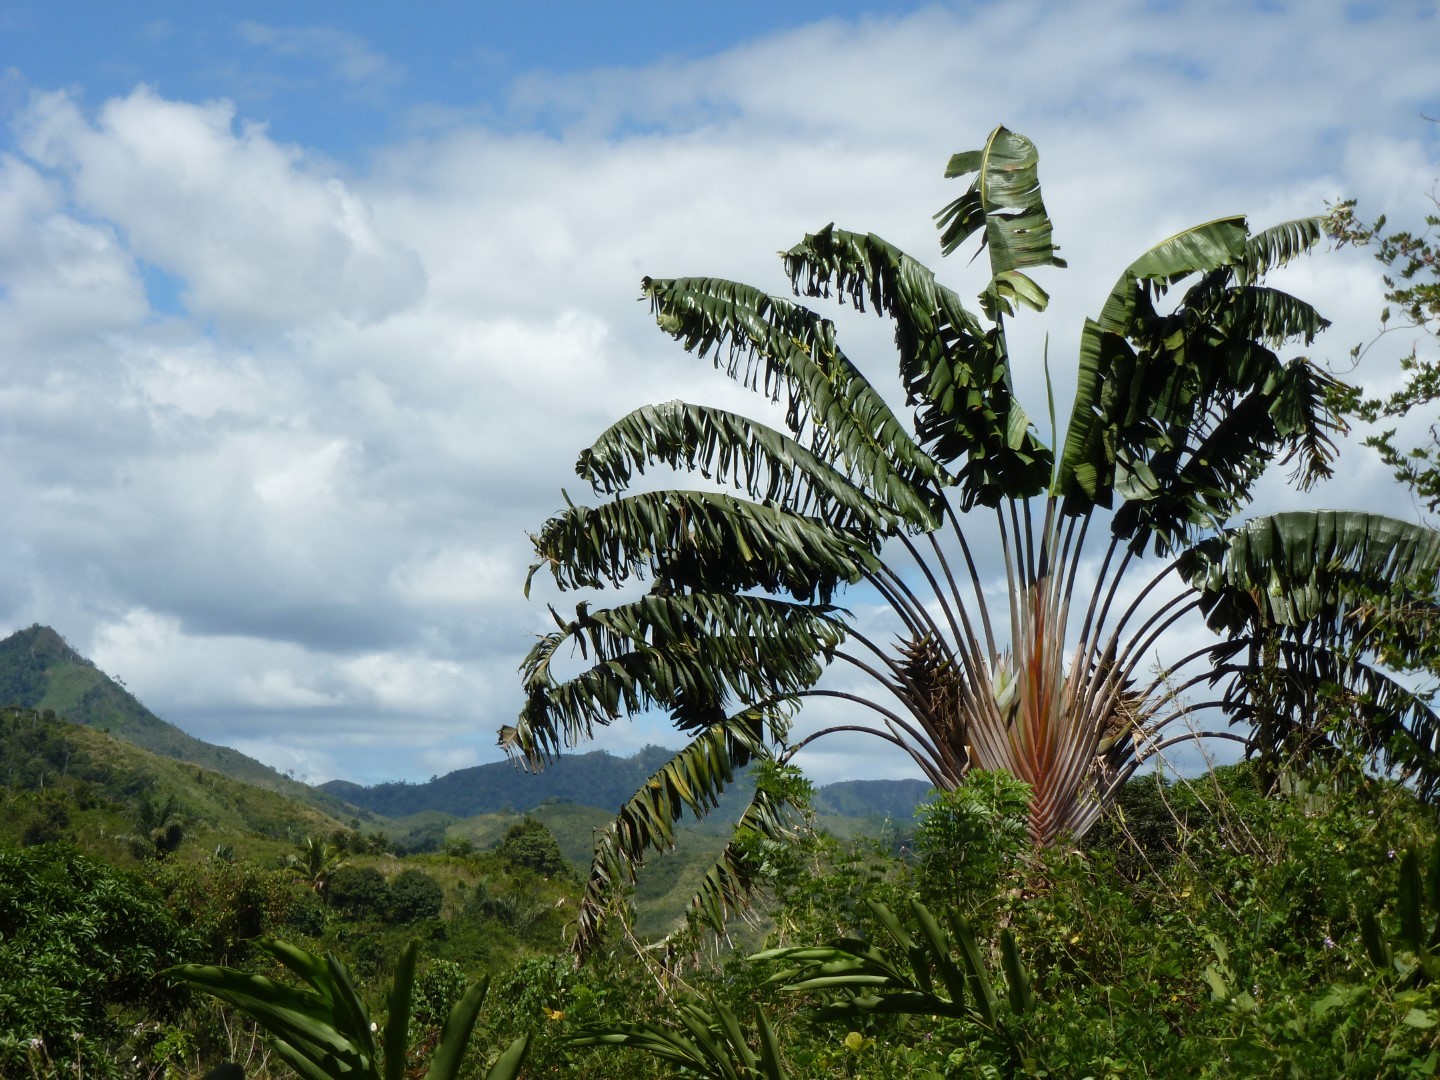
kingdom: Plantae
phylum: Tracheophyta
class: Liliopsida
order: Zingiberales
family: Strelitziaceae
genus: Ravenala
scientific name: Ravenala madagascariensis
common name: Traveler's-palm
